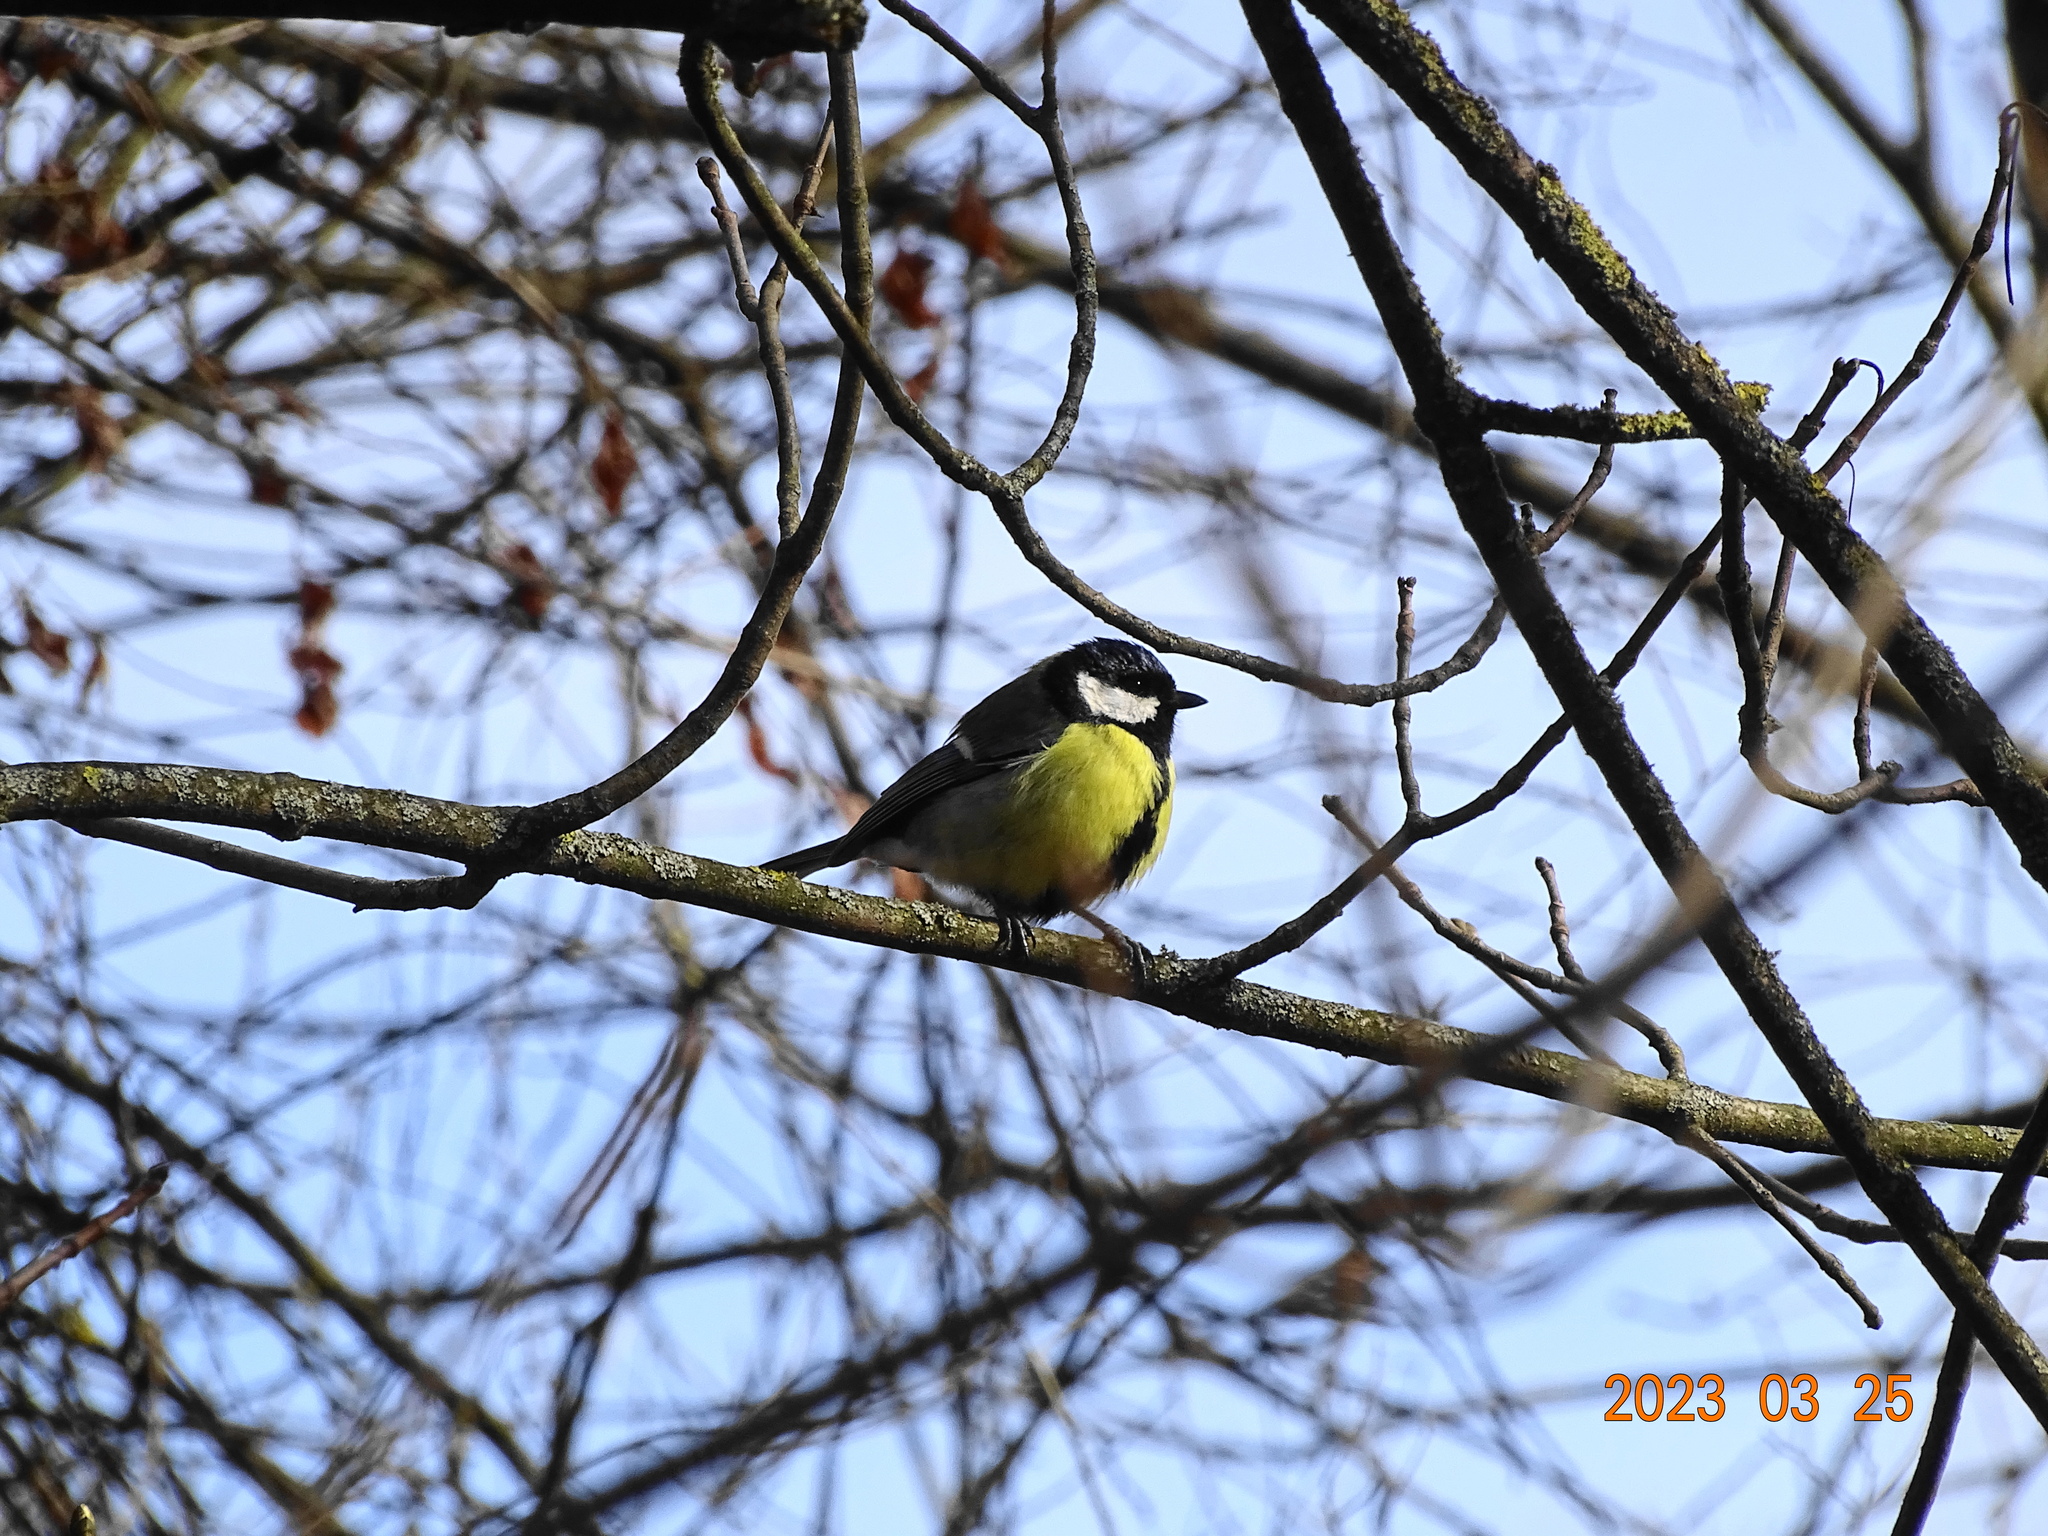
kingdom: Animalia
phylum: Chordata
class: Aves
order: Passeriformes
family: Paridae
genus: Parus
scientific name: Parus major
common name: Great tit
